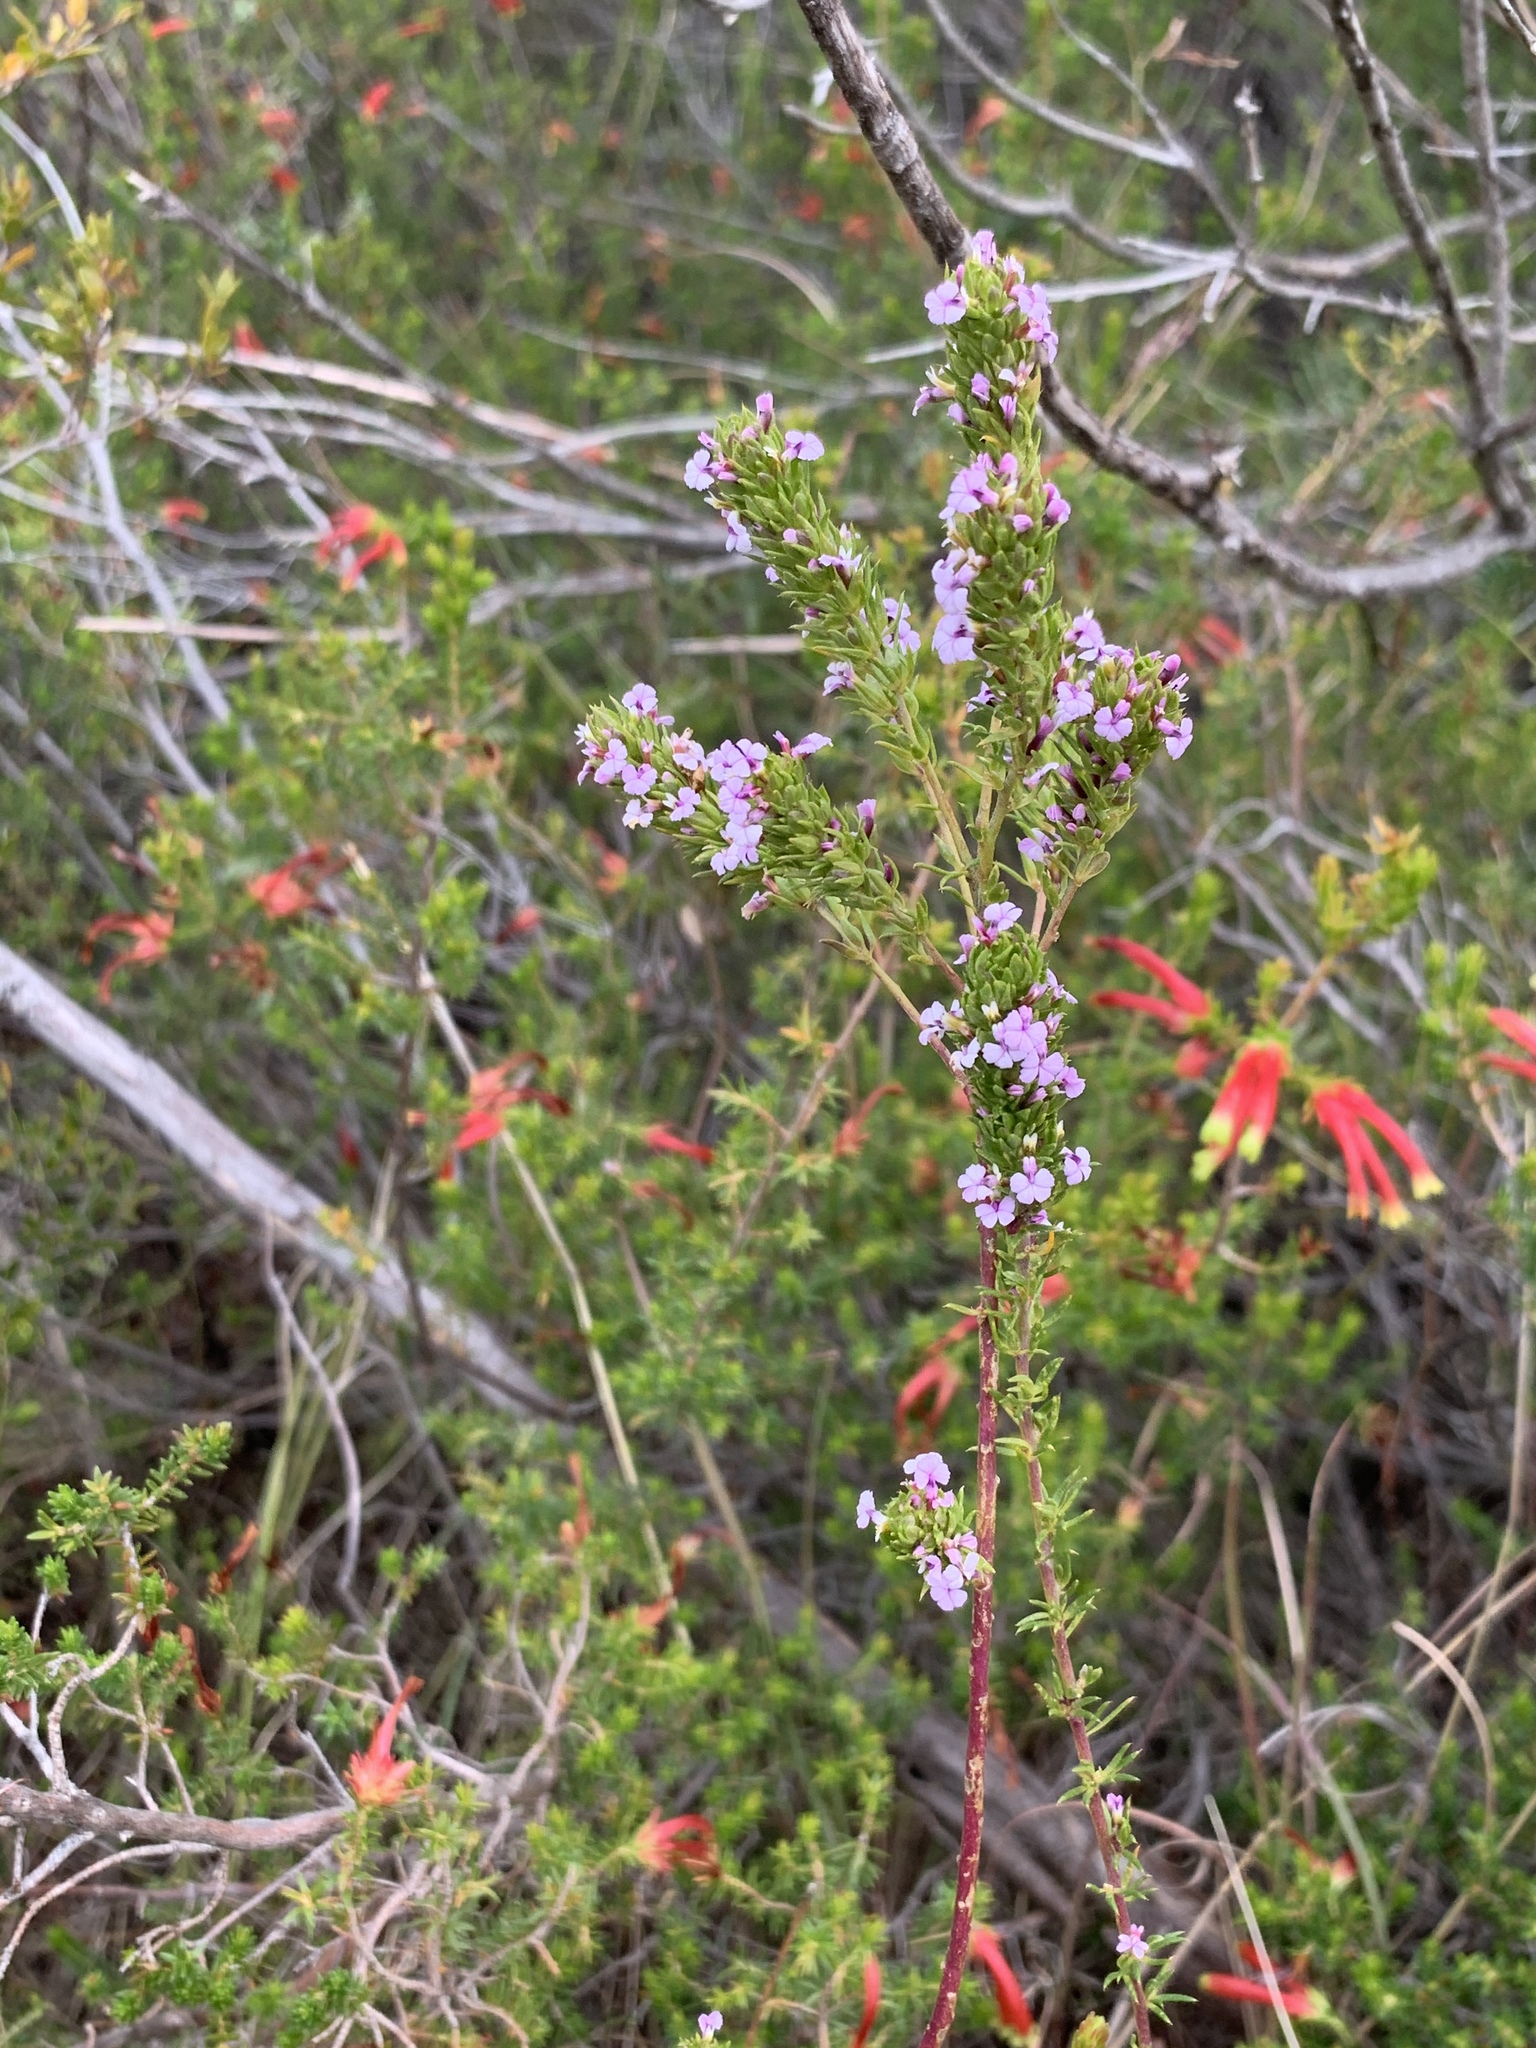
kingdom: Plantae
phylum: Tracheophyta
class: Magnoliopsida
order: Fabales
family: Polygalaceae
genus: Muraltia
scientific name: Muraltia alopecuroides
